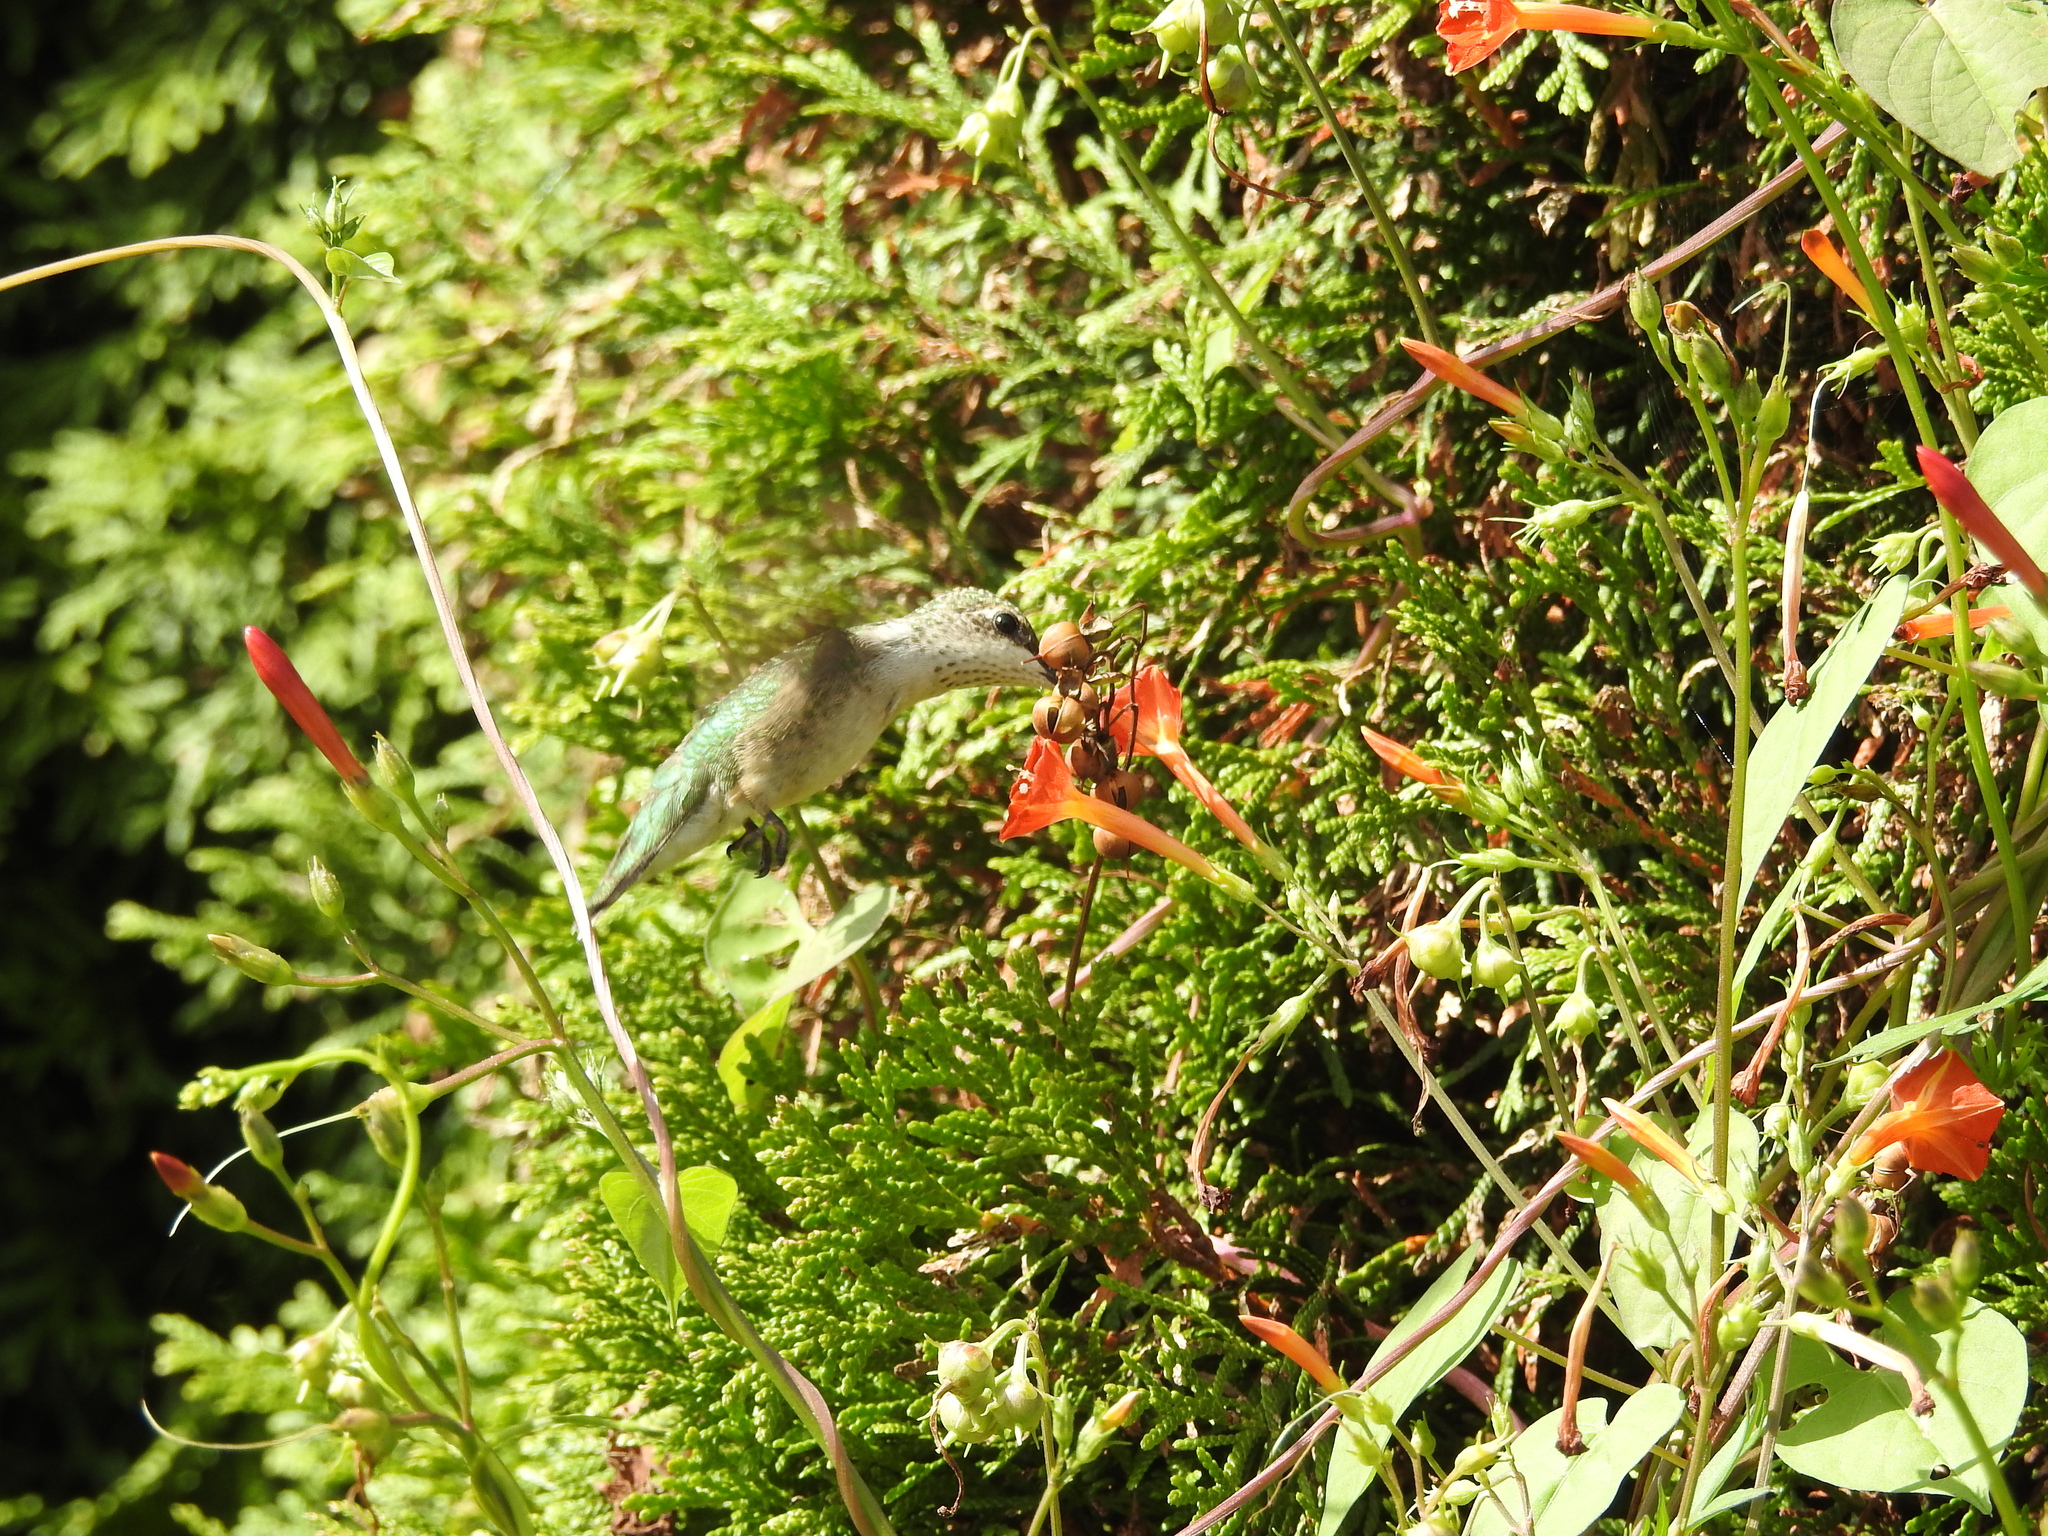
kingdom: Animalia
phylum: Chordata
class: Aves
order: Apodiformes
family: Trochilidae
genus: Archilochus
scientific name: Archilochus colubris
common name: Ruby-throated hummingbird
